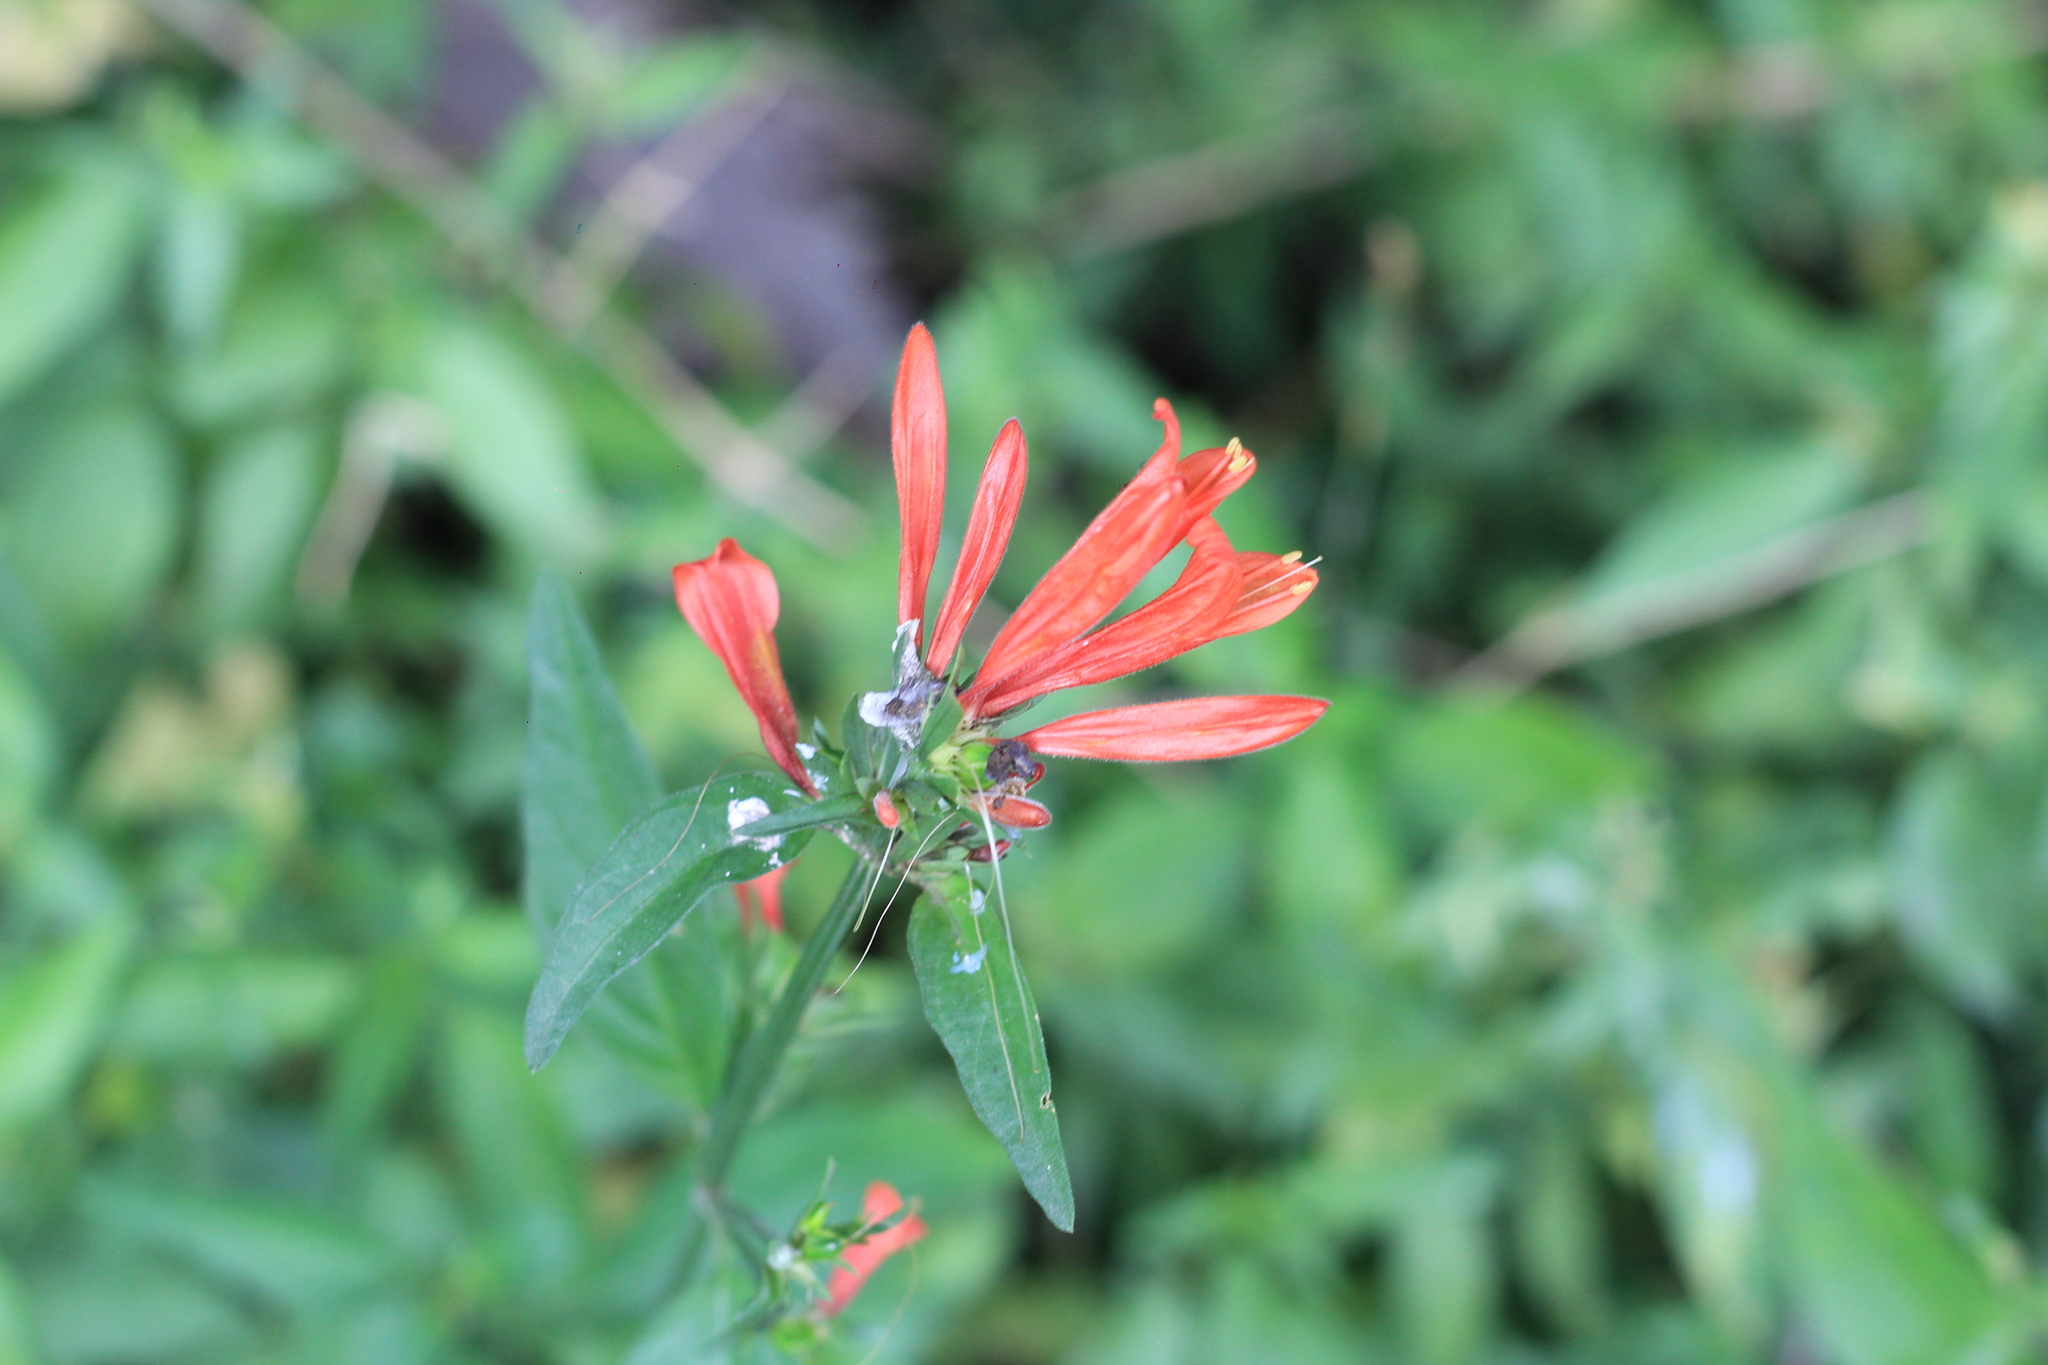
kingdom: Plantae
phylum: Tracheophyta
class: Magnoliopsida
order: Lamiales
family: Acanthaceae
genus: Dicliptera
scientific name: Dicliptera squarrosa
